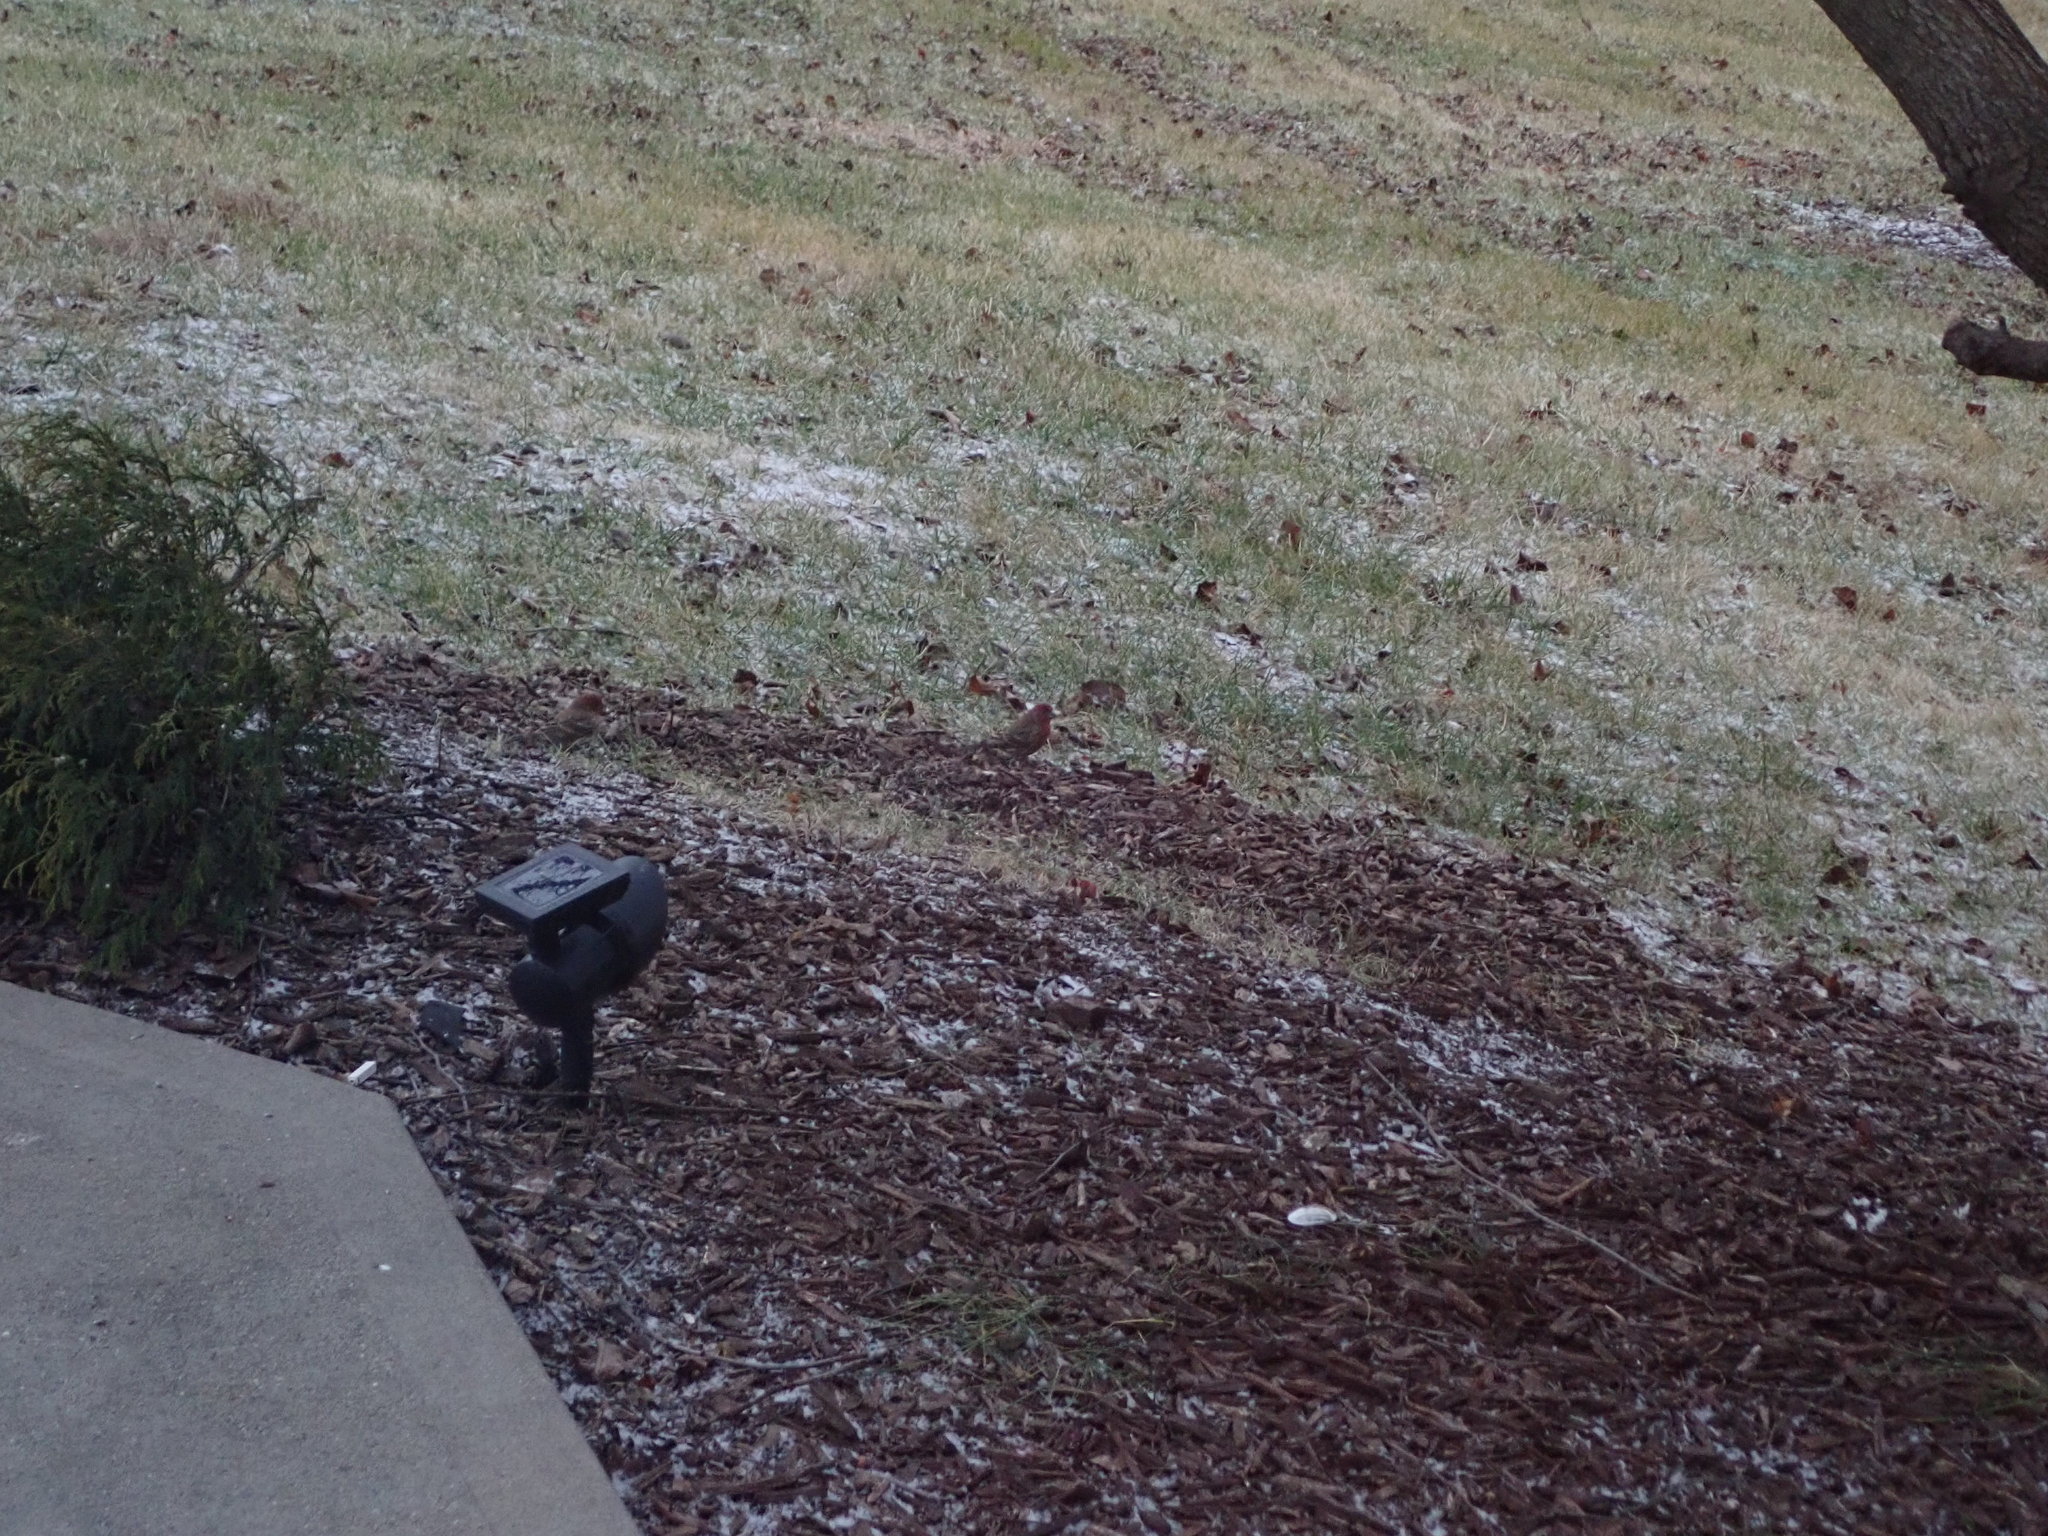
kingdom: Animalia
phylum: Chordata
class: Aves
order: Passeriformes
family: Fringillidae
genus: Haemorhous
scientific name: Haemorhous mexicanus
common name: House finch
